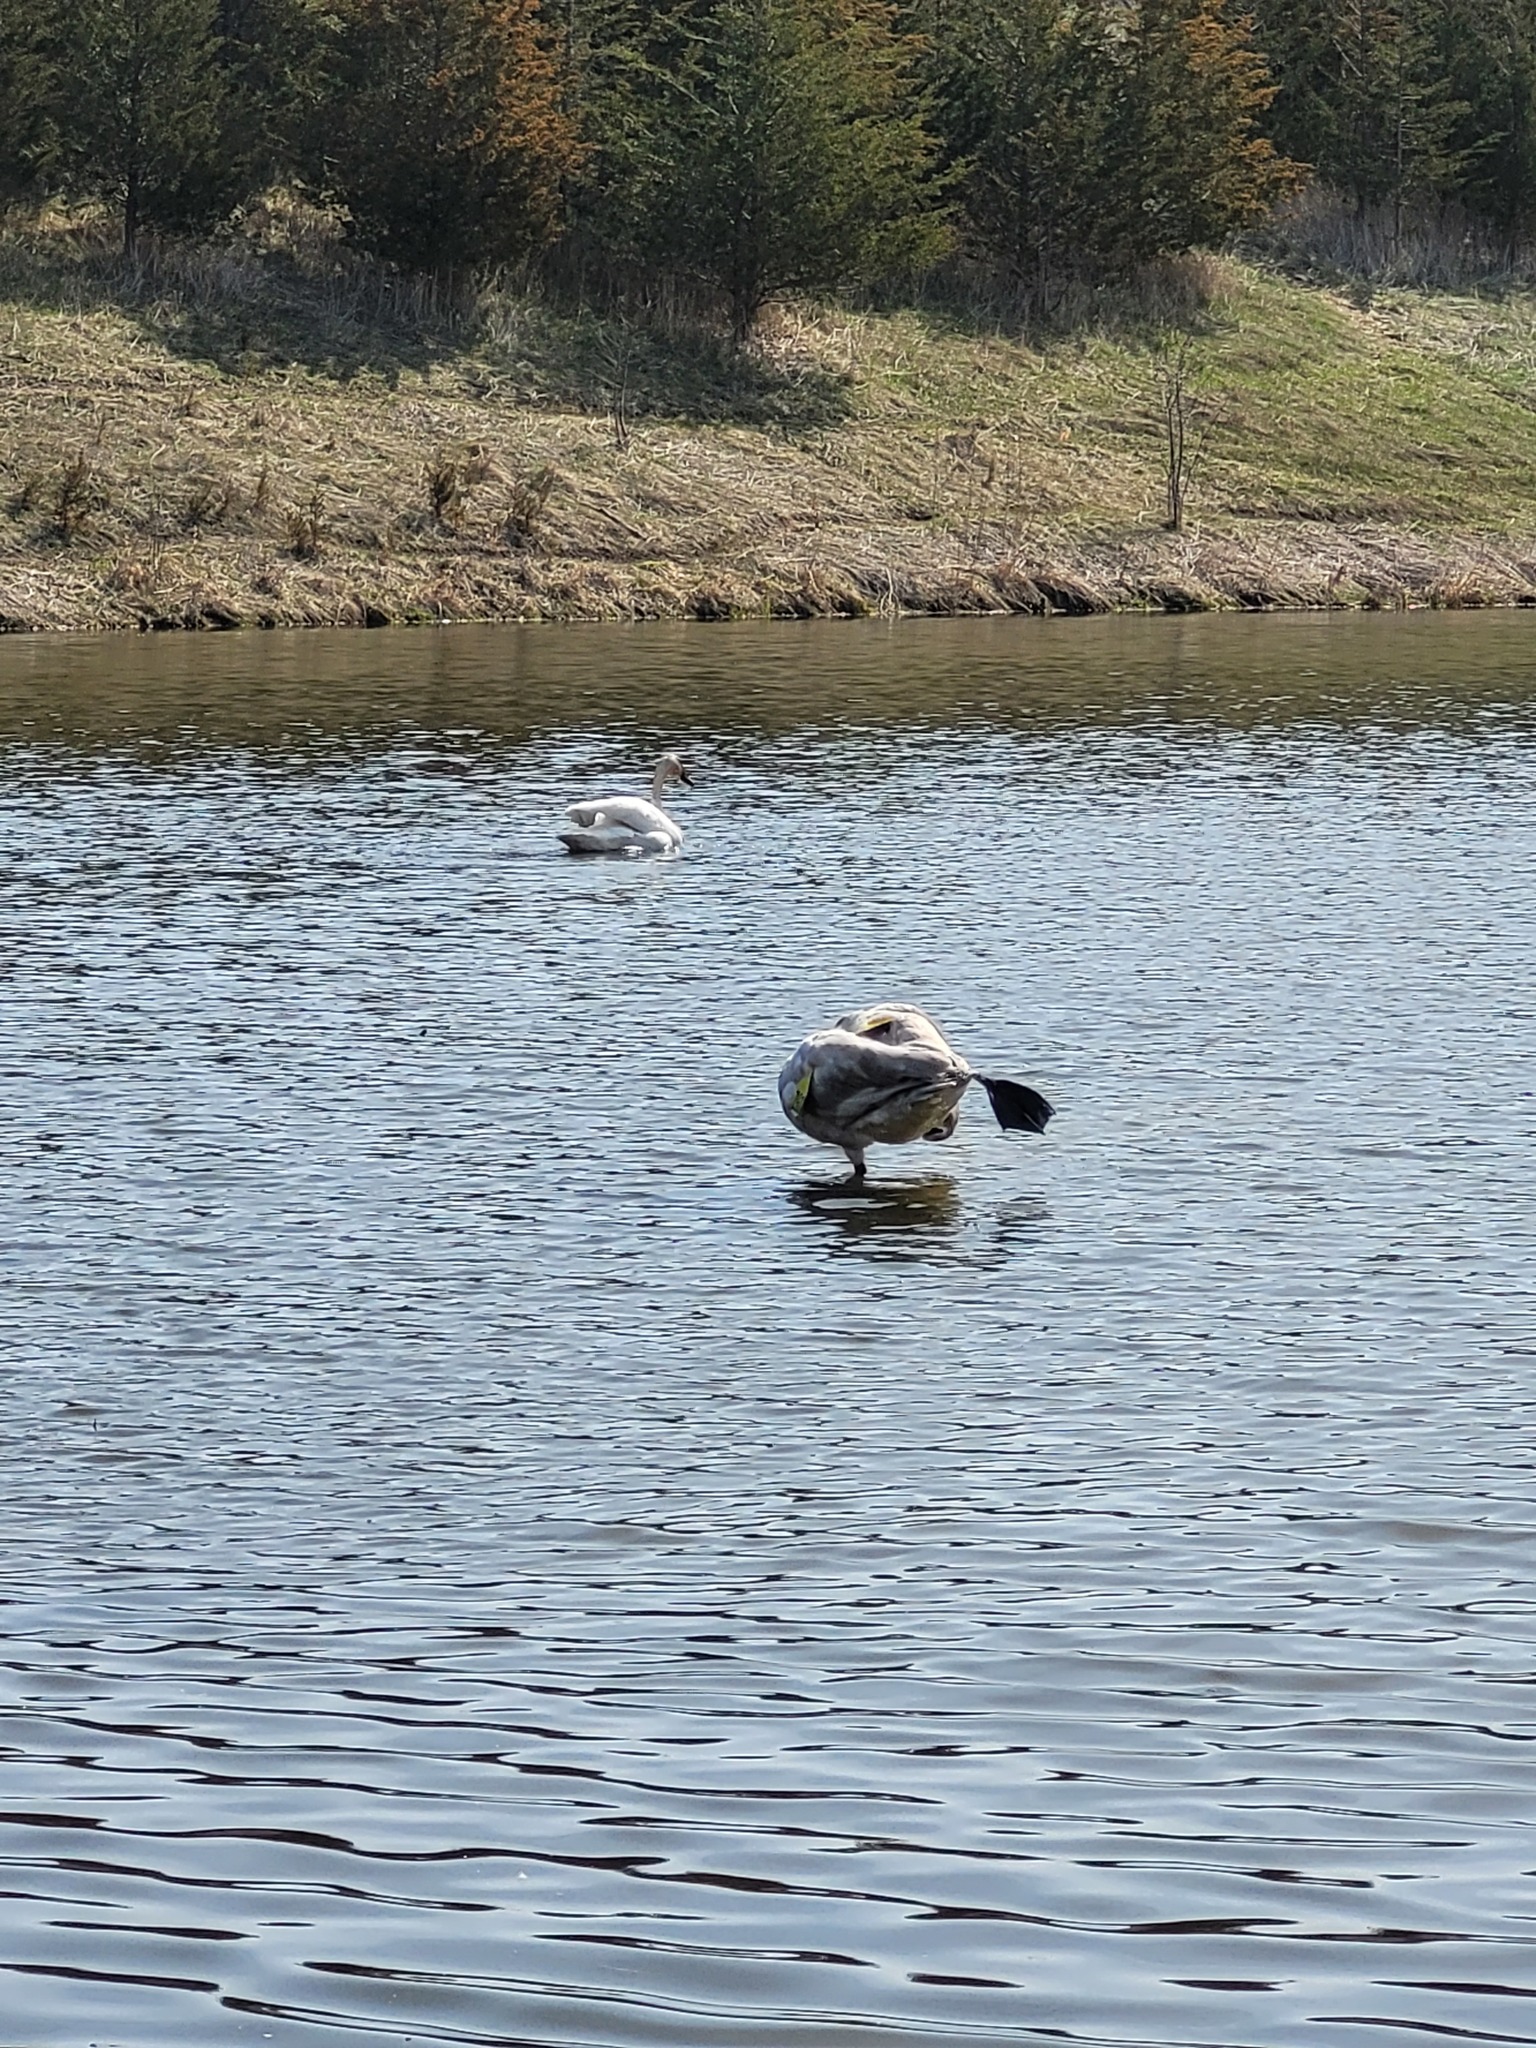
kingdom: Animalia
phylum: Chordata
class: Aves
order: Anseriformes
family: Anatidae
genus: Cygnus
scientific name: Cygnus buccinator
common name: Trumpeter swan
